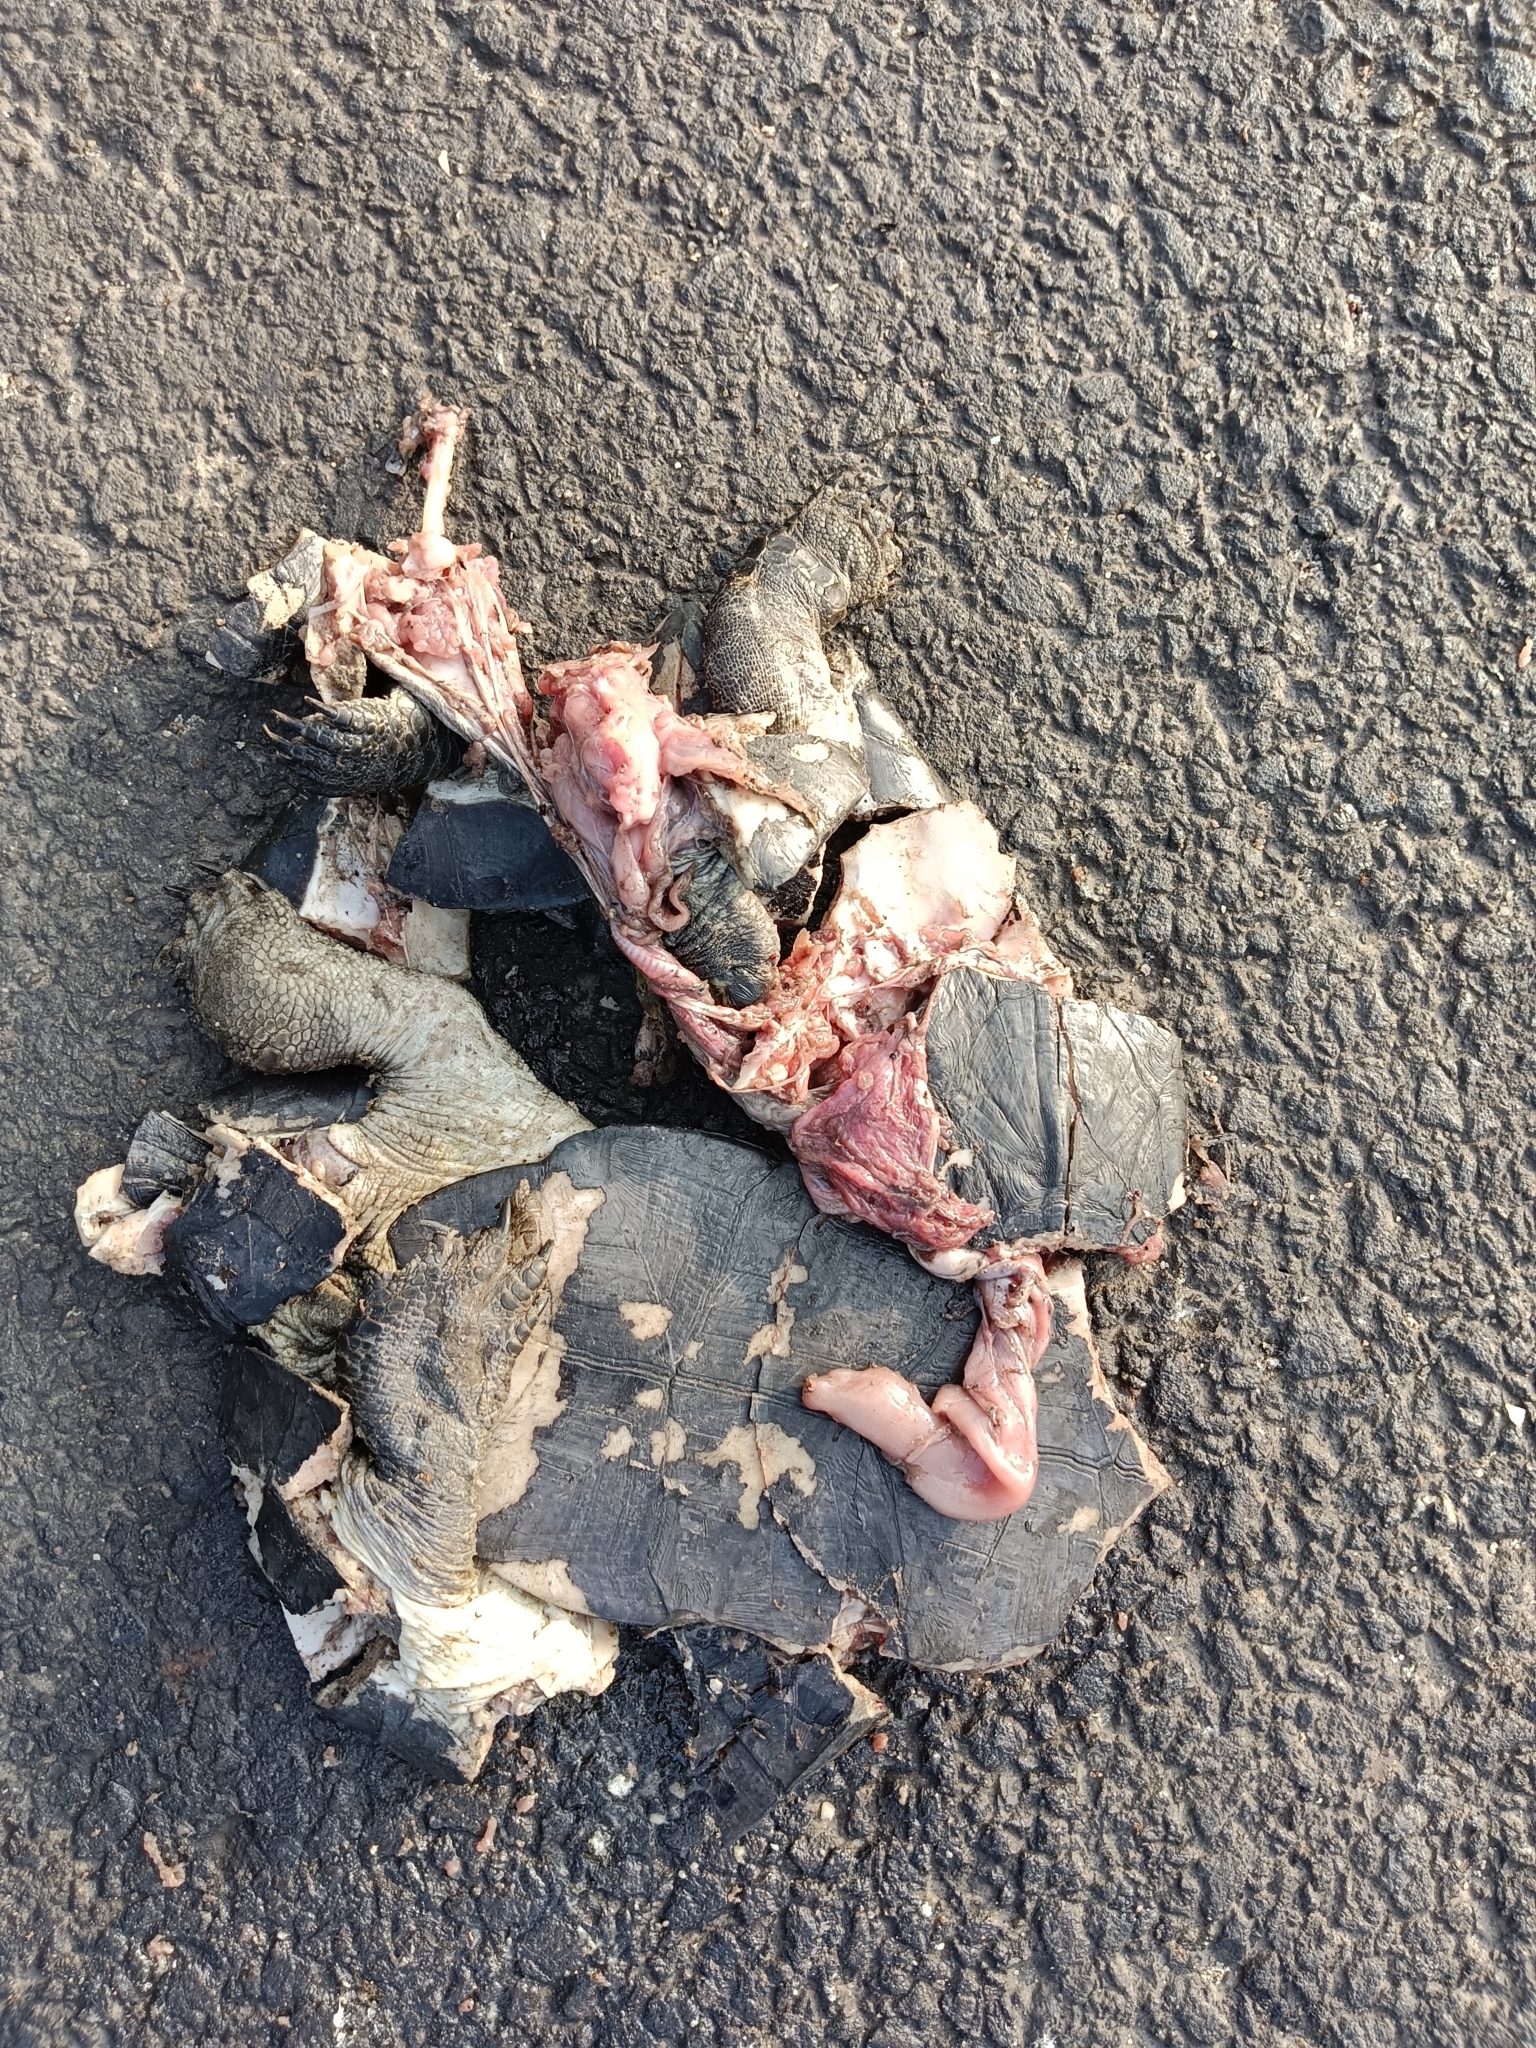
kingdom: Animalia
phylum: Chordata
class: Testudines
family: Geoemydidae
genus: Melanochelys
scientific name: Melanochelys trijuga
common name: Indian black turtle
